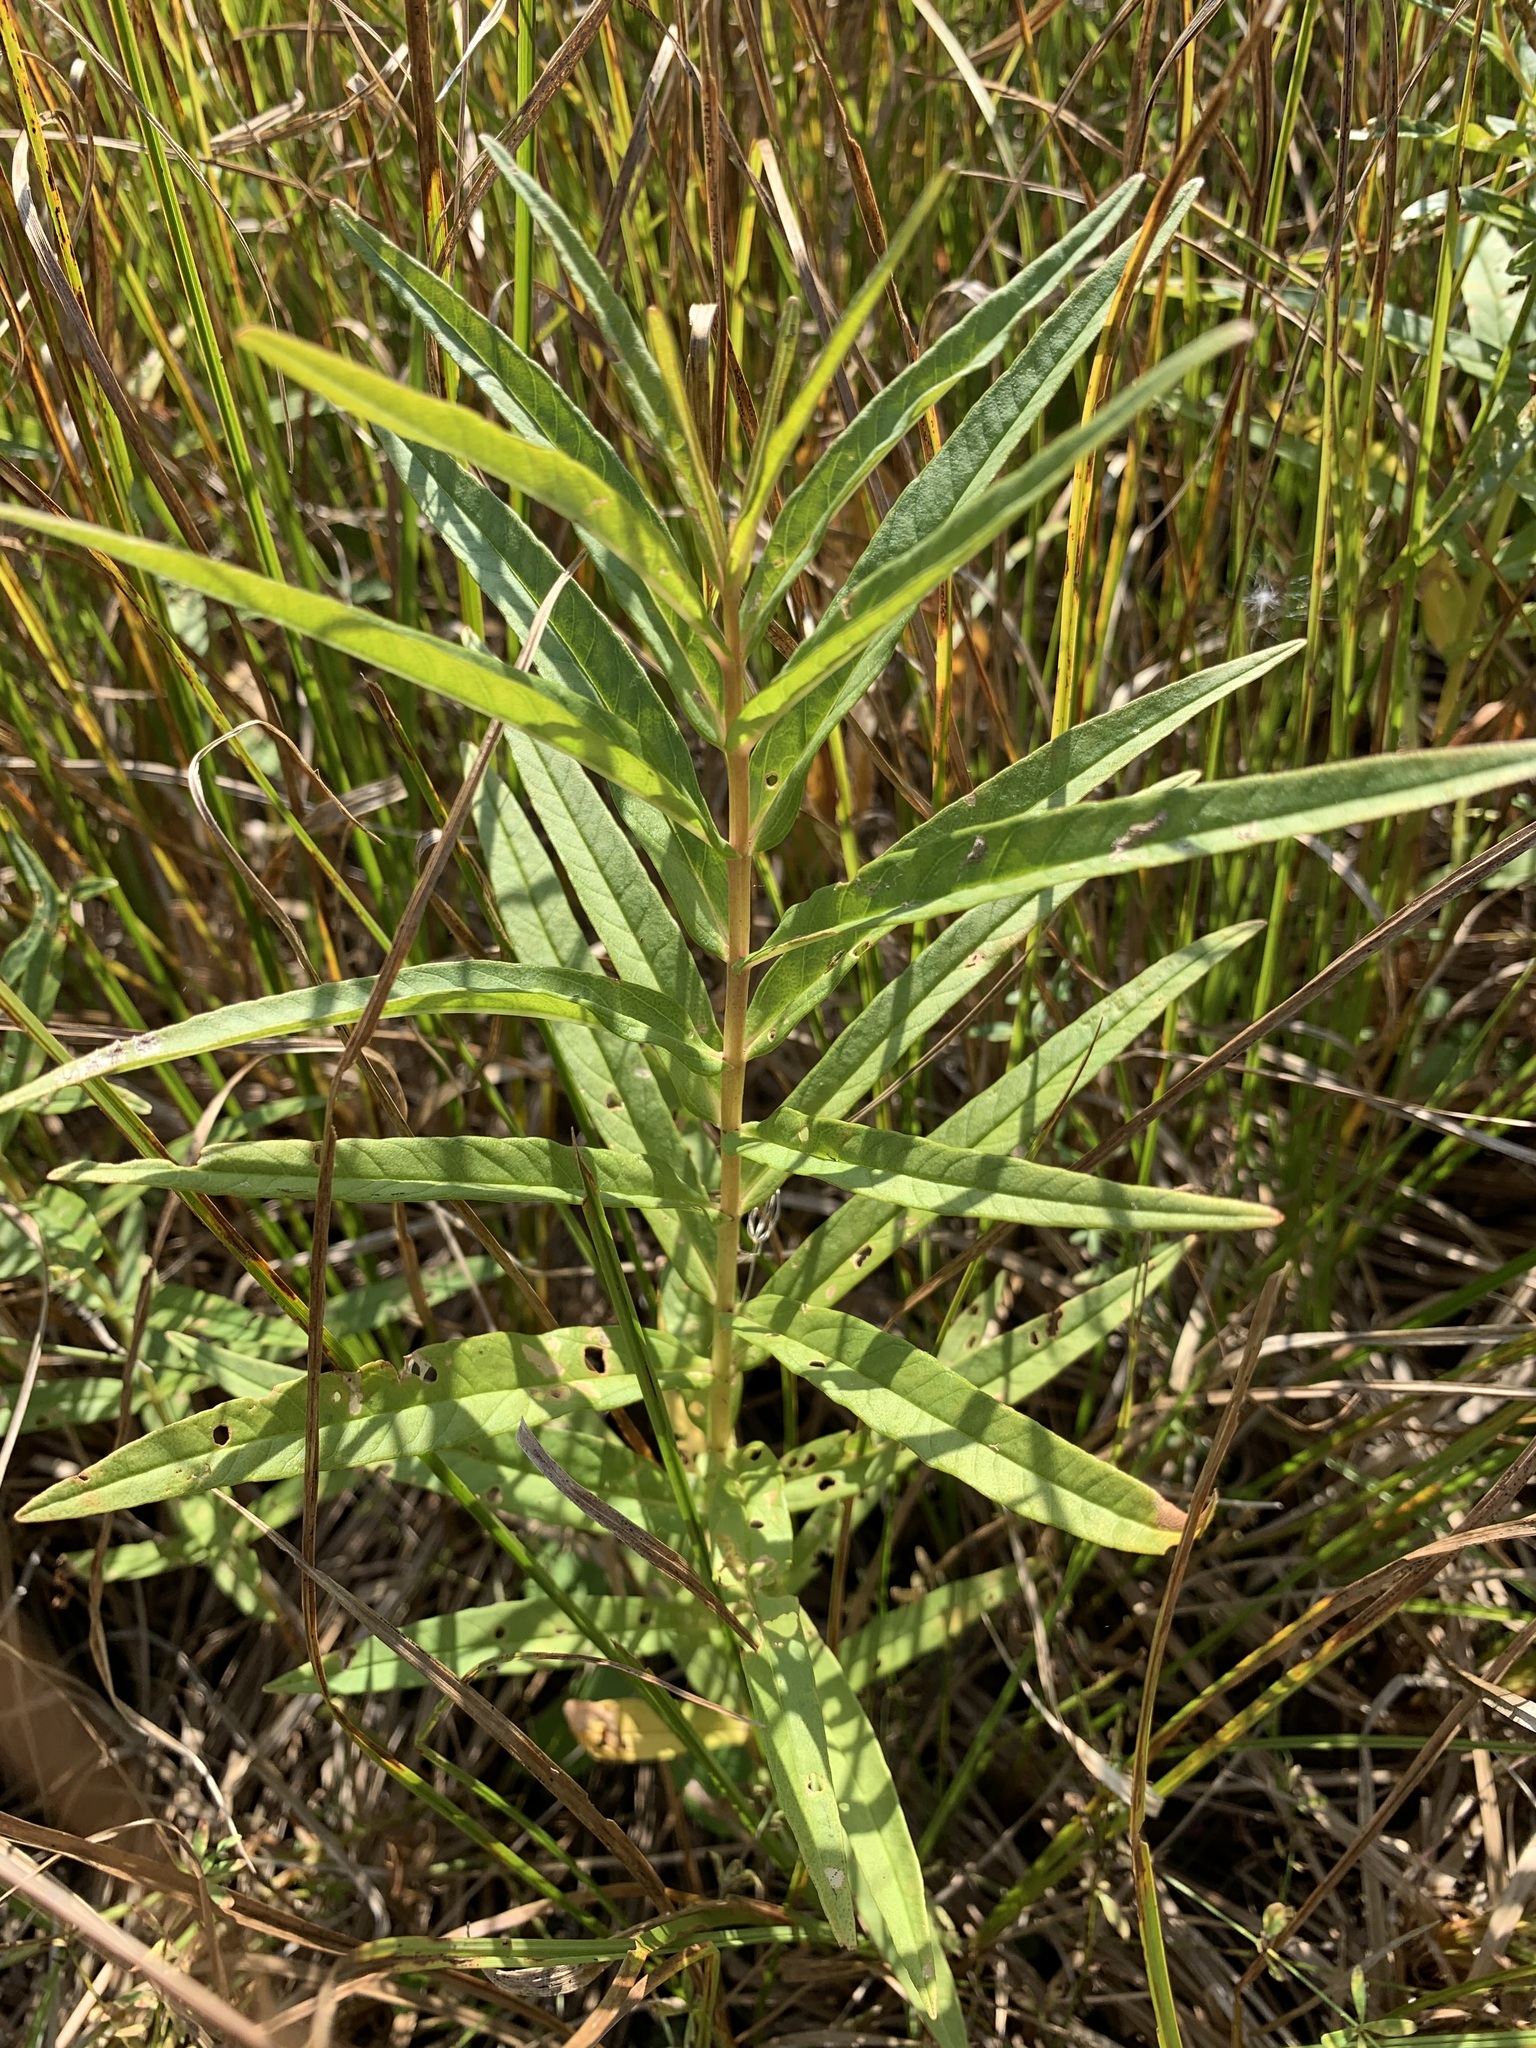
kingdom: Plantae
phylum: Tracheophyta
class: Magnoliopsida
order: Ericales
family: Primulaceae
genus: Lysimachia
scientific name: Lysimachia thyrsiflora
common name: Tufted loosestrife
